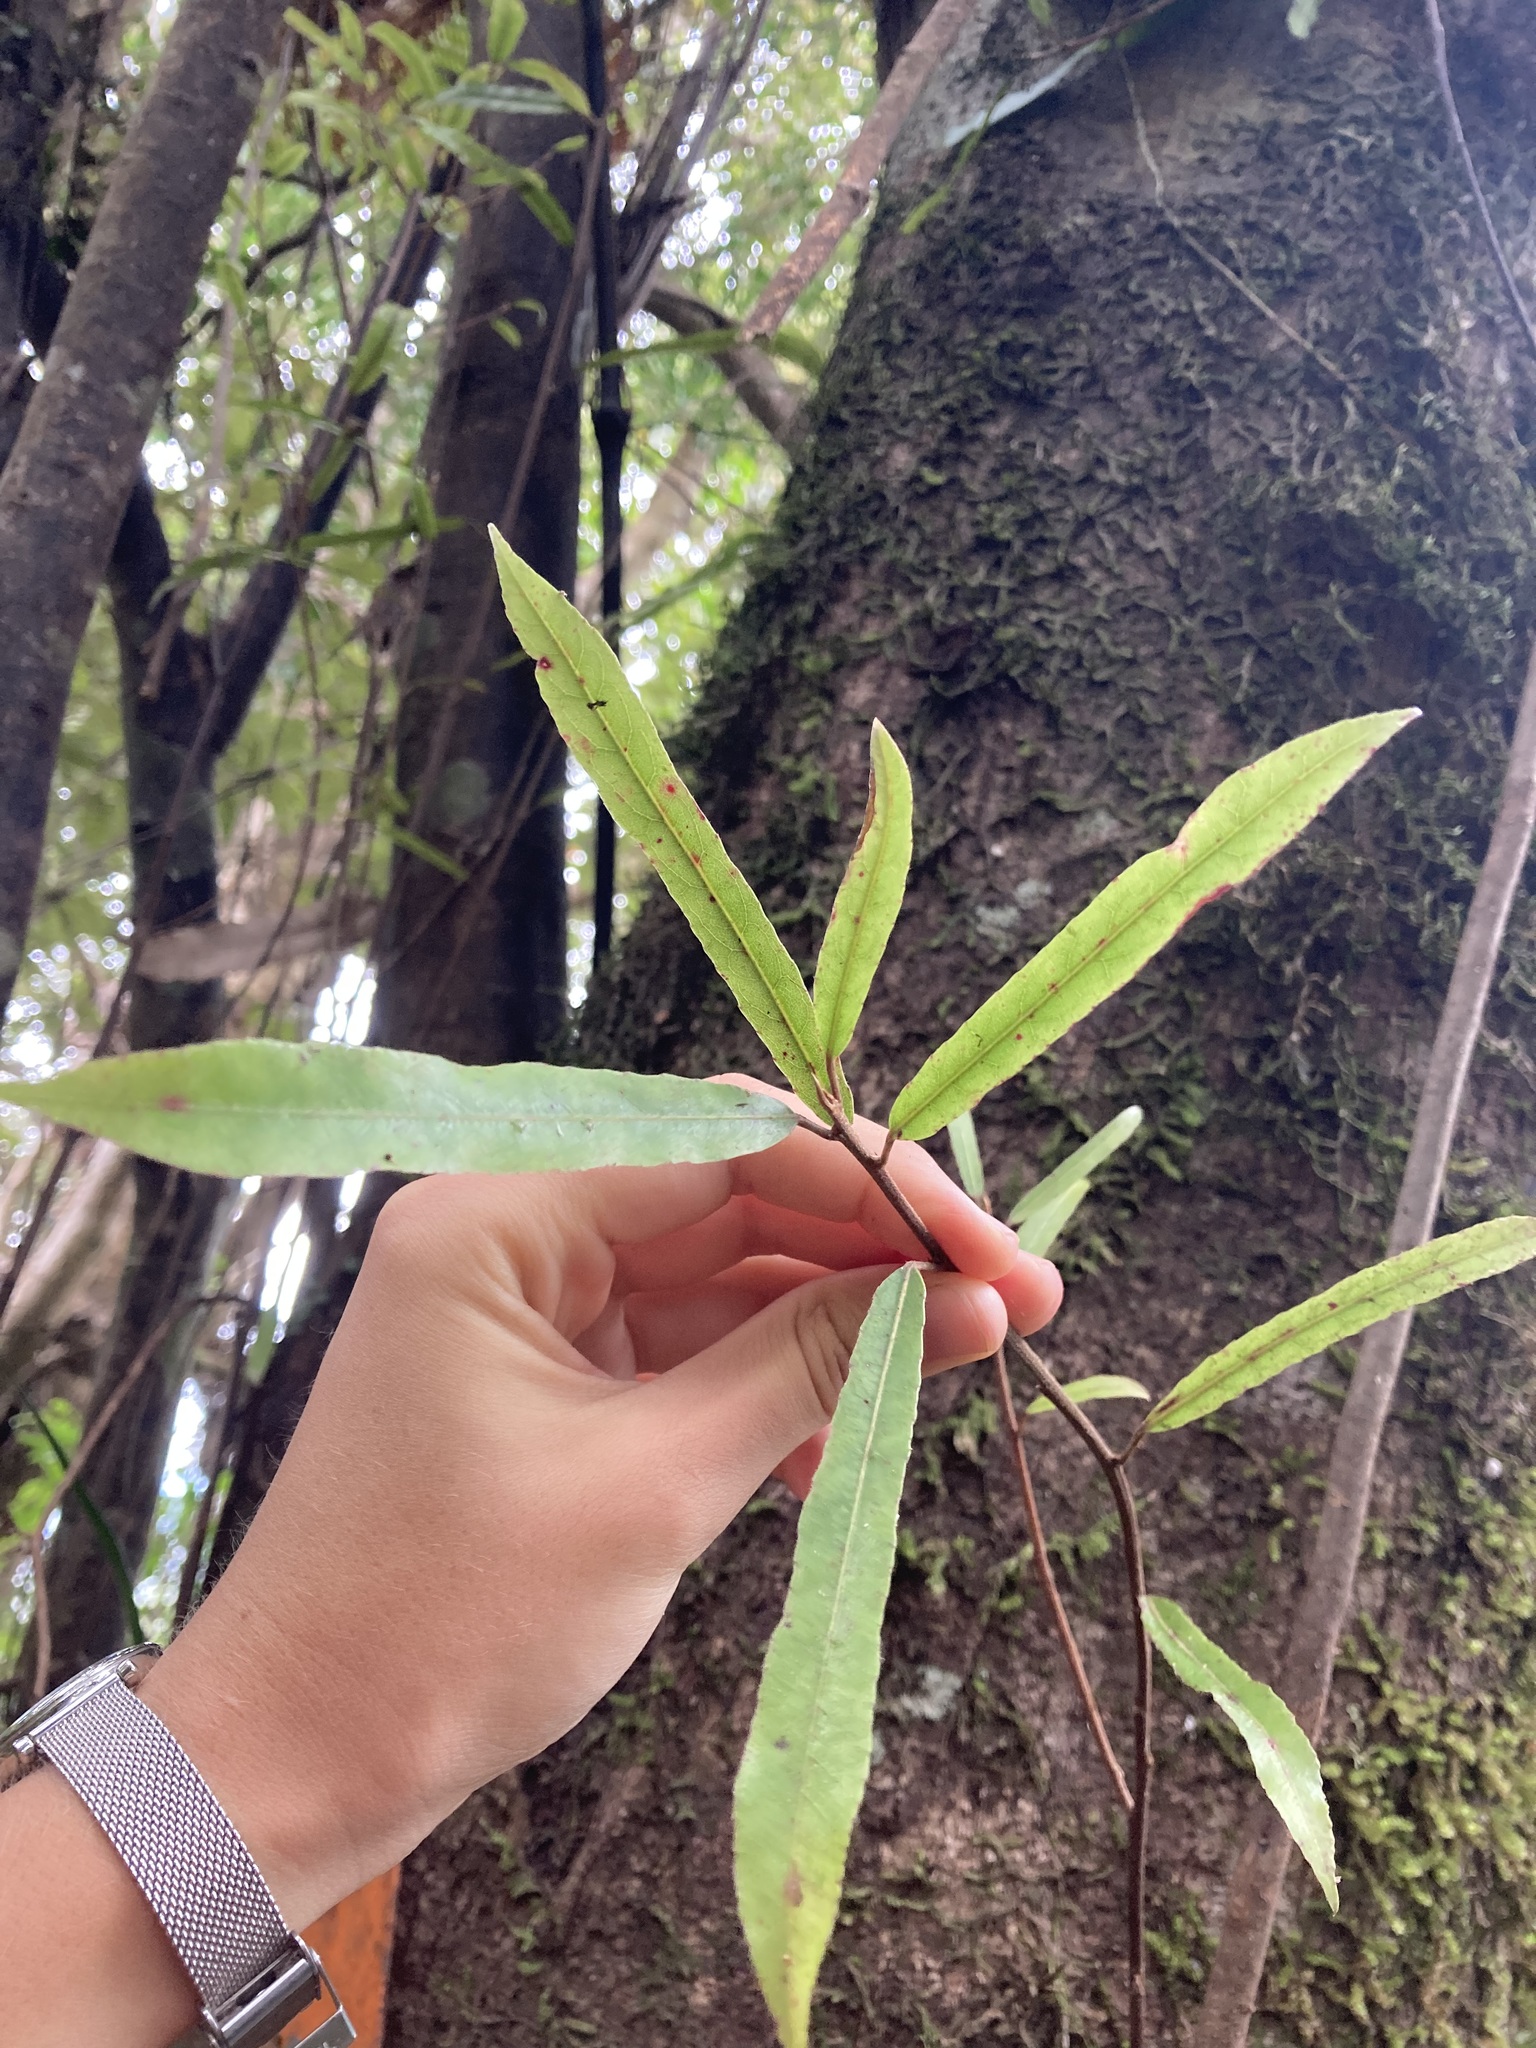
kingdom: Plantae
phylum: Tracheophyta
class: Magnoliopsida
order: Oxalidales
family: Elaeocarpaceae
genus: Elaeocarpus
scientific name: Elaeocarpus dentatus
